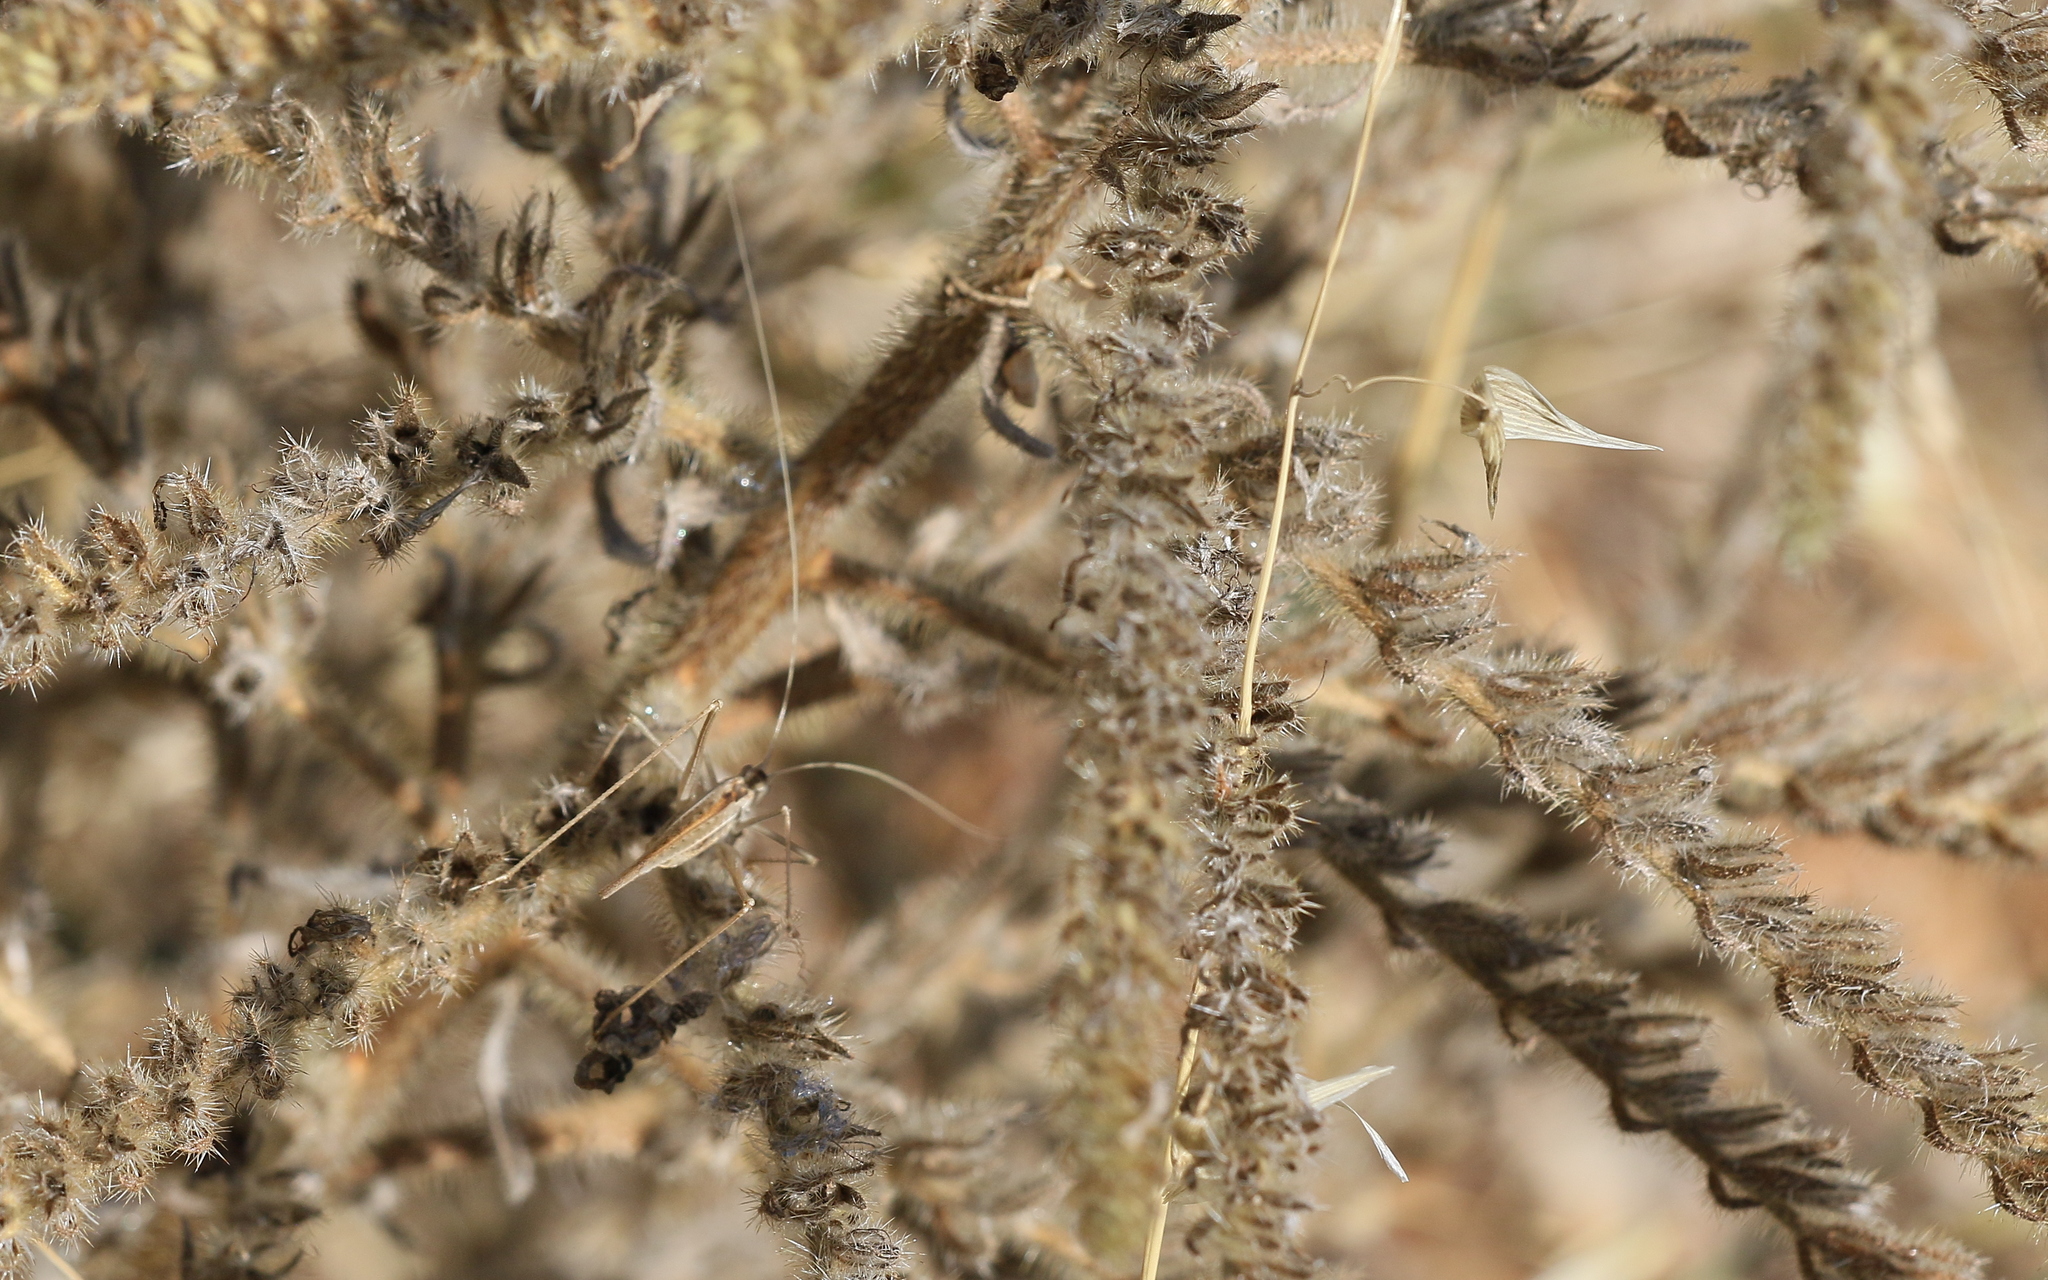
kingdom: Animalia
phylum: Arthropoda
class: Insecta
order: Orthoptera
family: Tettigoniidae
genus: Tylopsis
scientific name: Tylopsis lilifolia
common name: Lily bush-cricket
